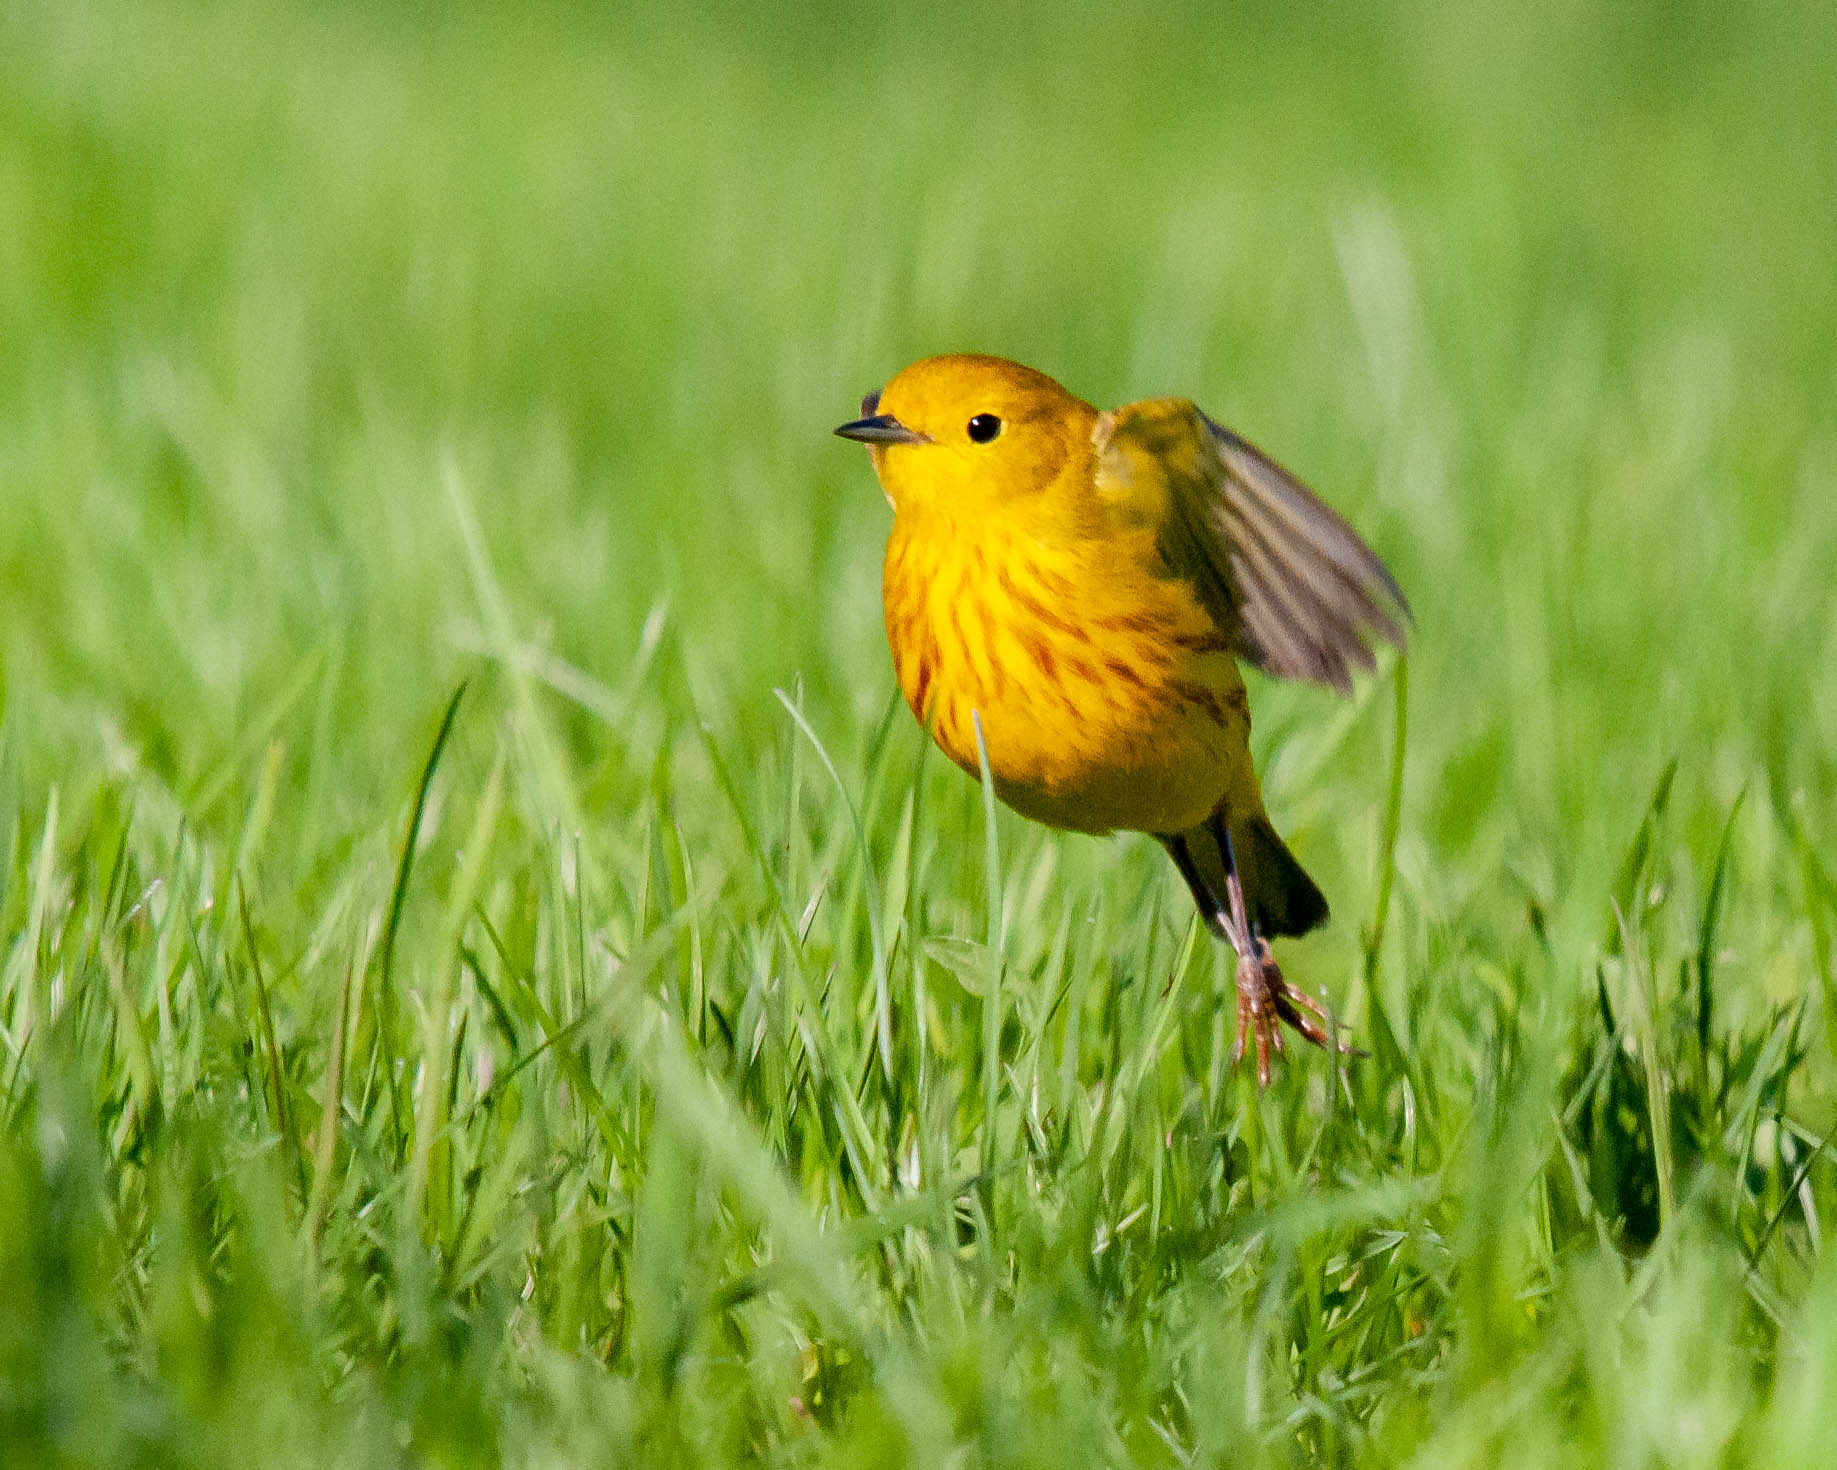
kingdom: Animalia
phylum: Chordata
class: Aves
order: Passeriformes
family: Parulidae
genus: Setophaga
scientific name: Setophaga petechia
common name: Yellow warbler
